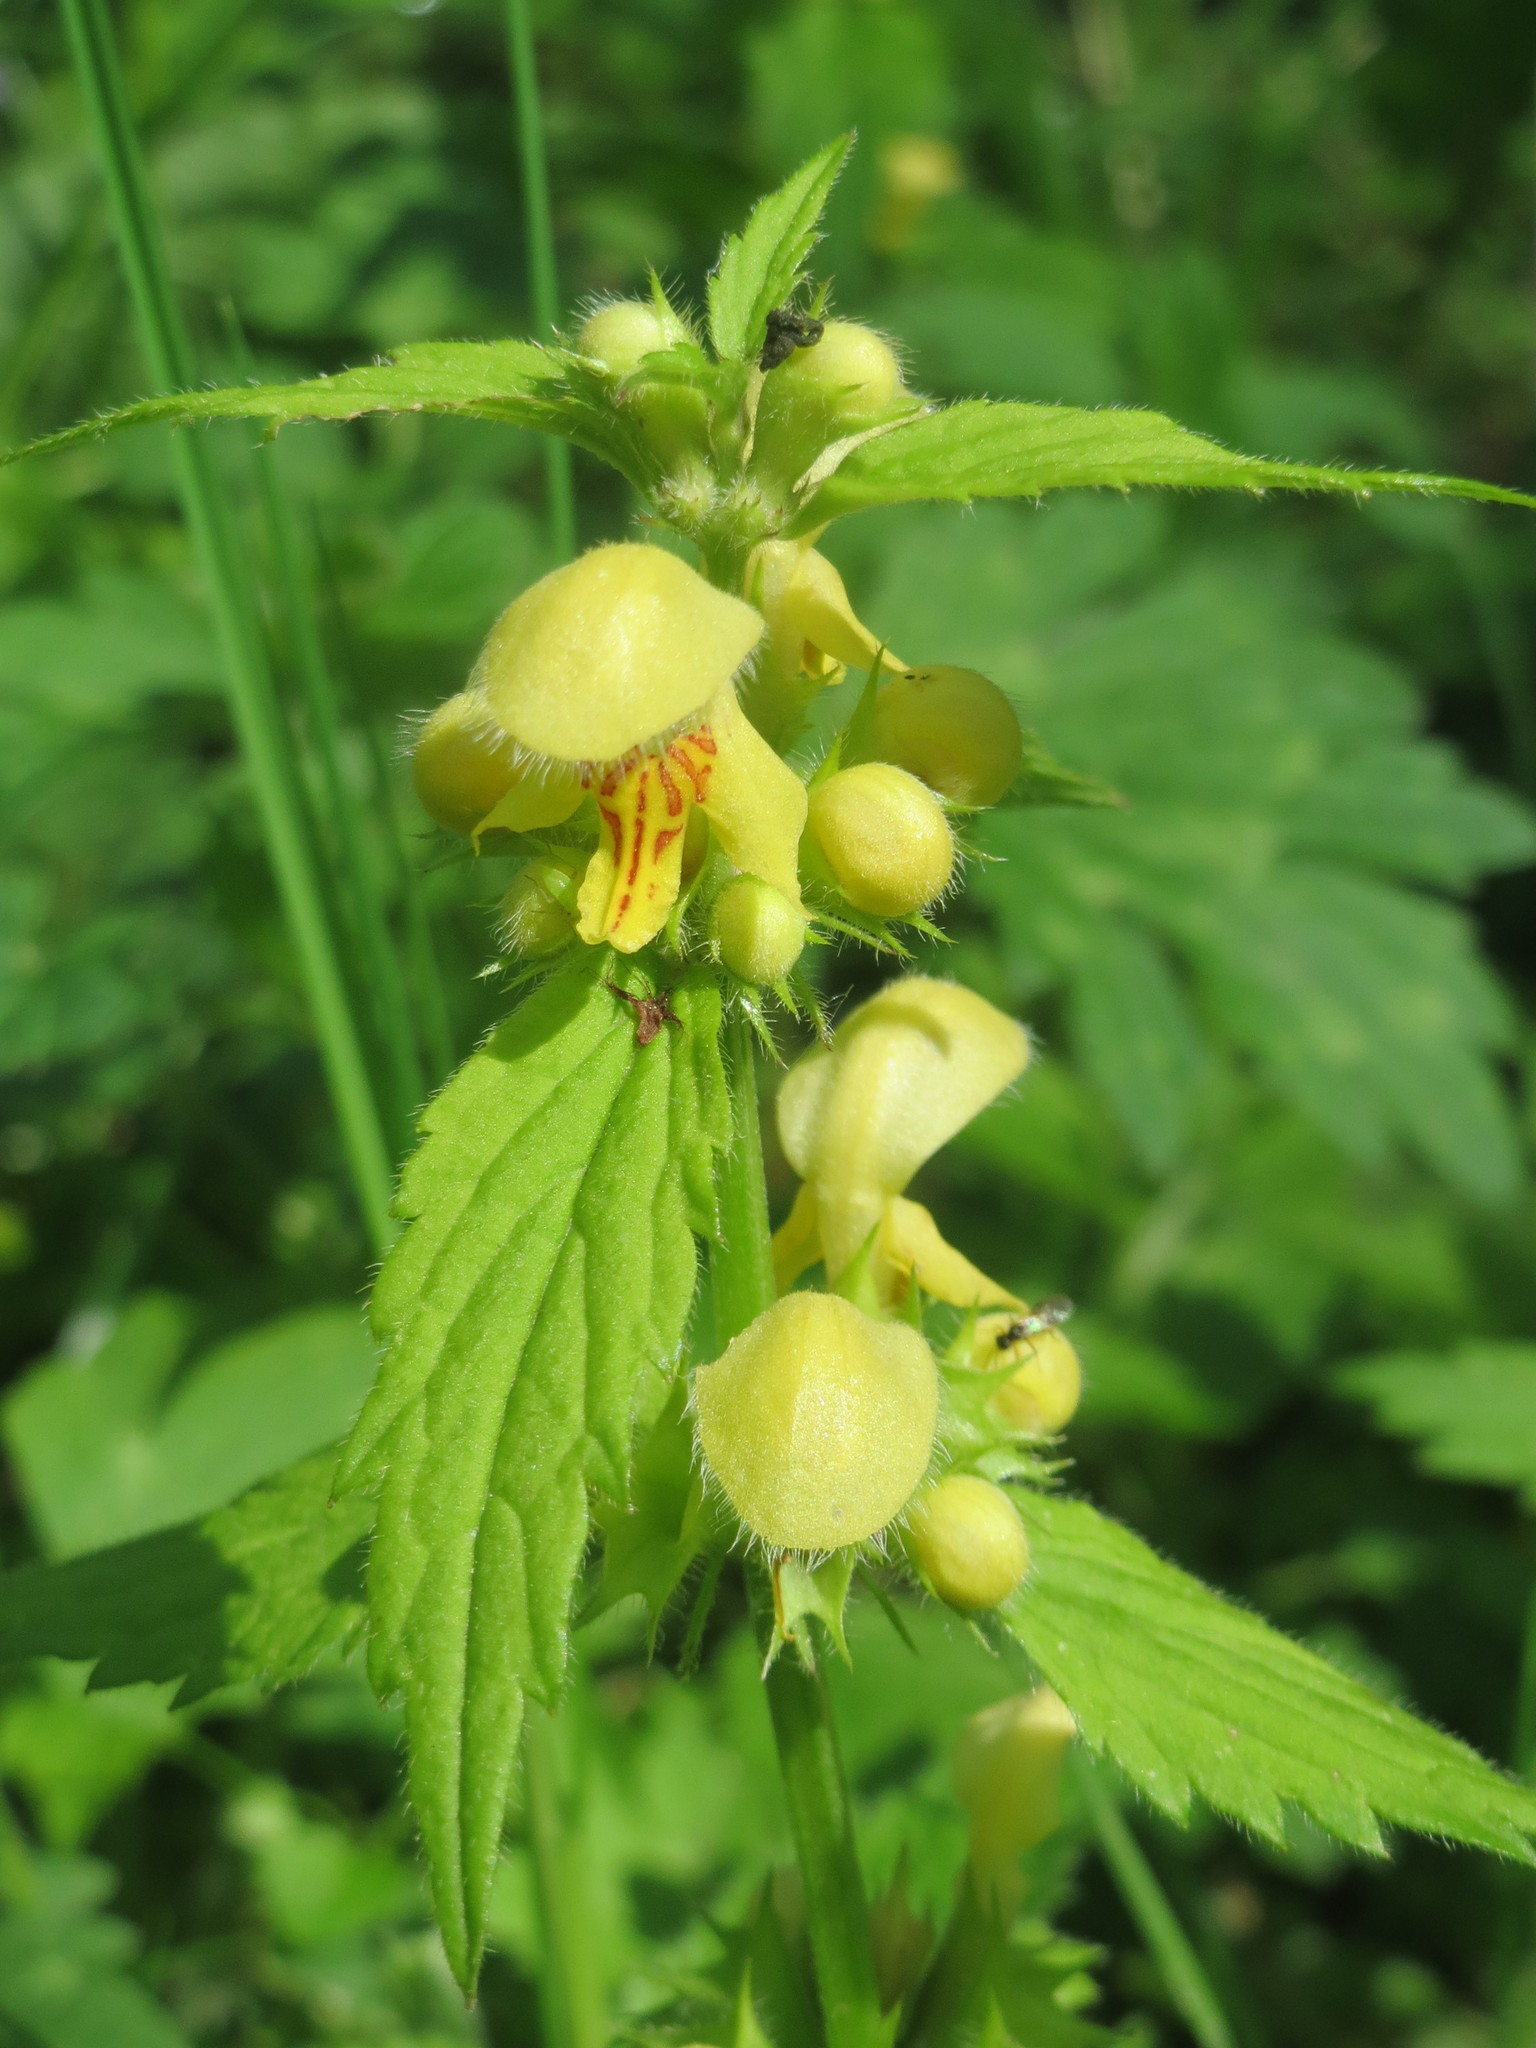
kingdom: Plantae
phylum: Tracheophyta
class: Magnoliopsida
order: Lamiales
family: Lamiaceae
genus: Lamium
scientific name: Lamium galeobdolon
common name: Yellow archangel
